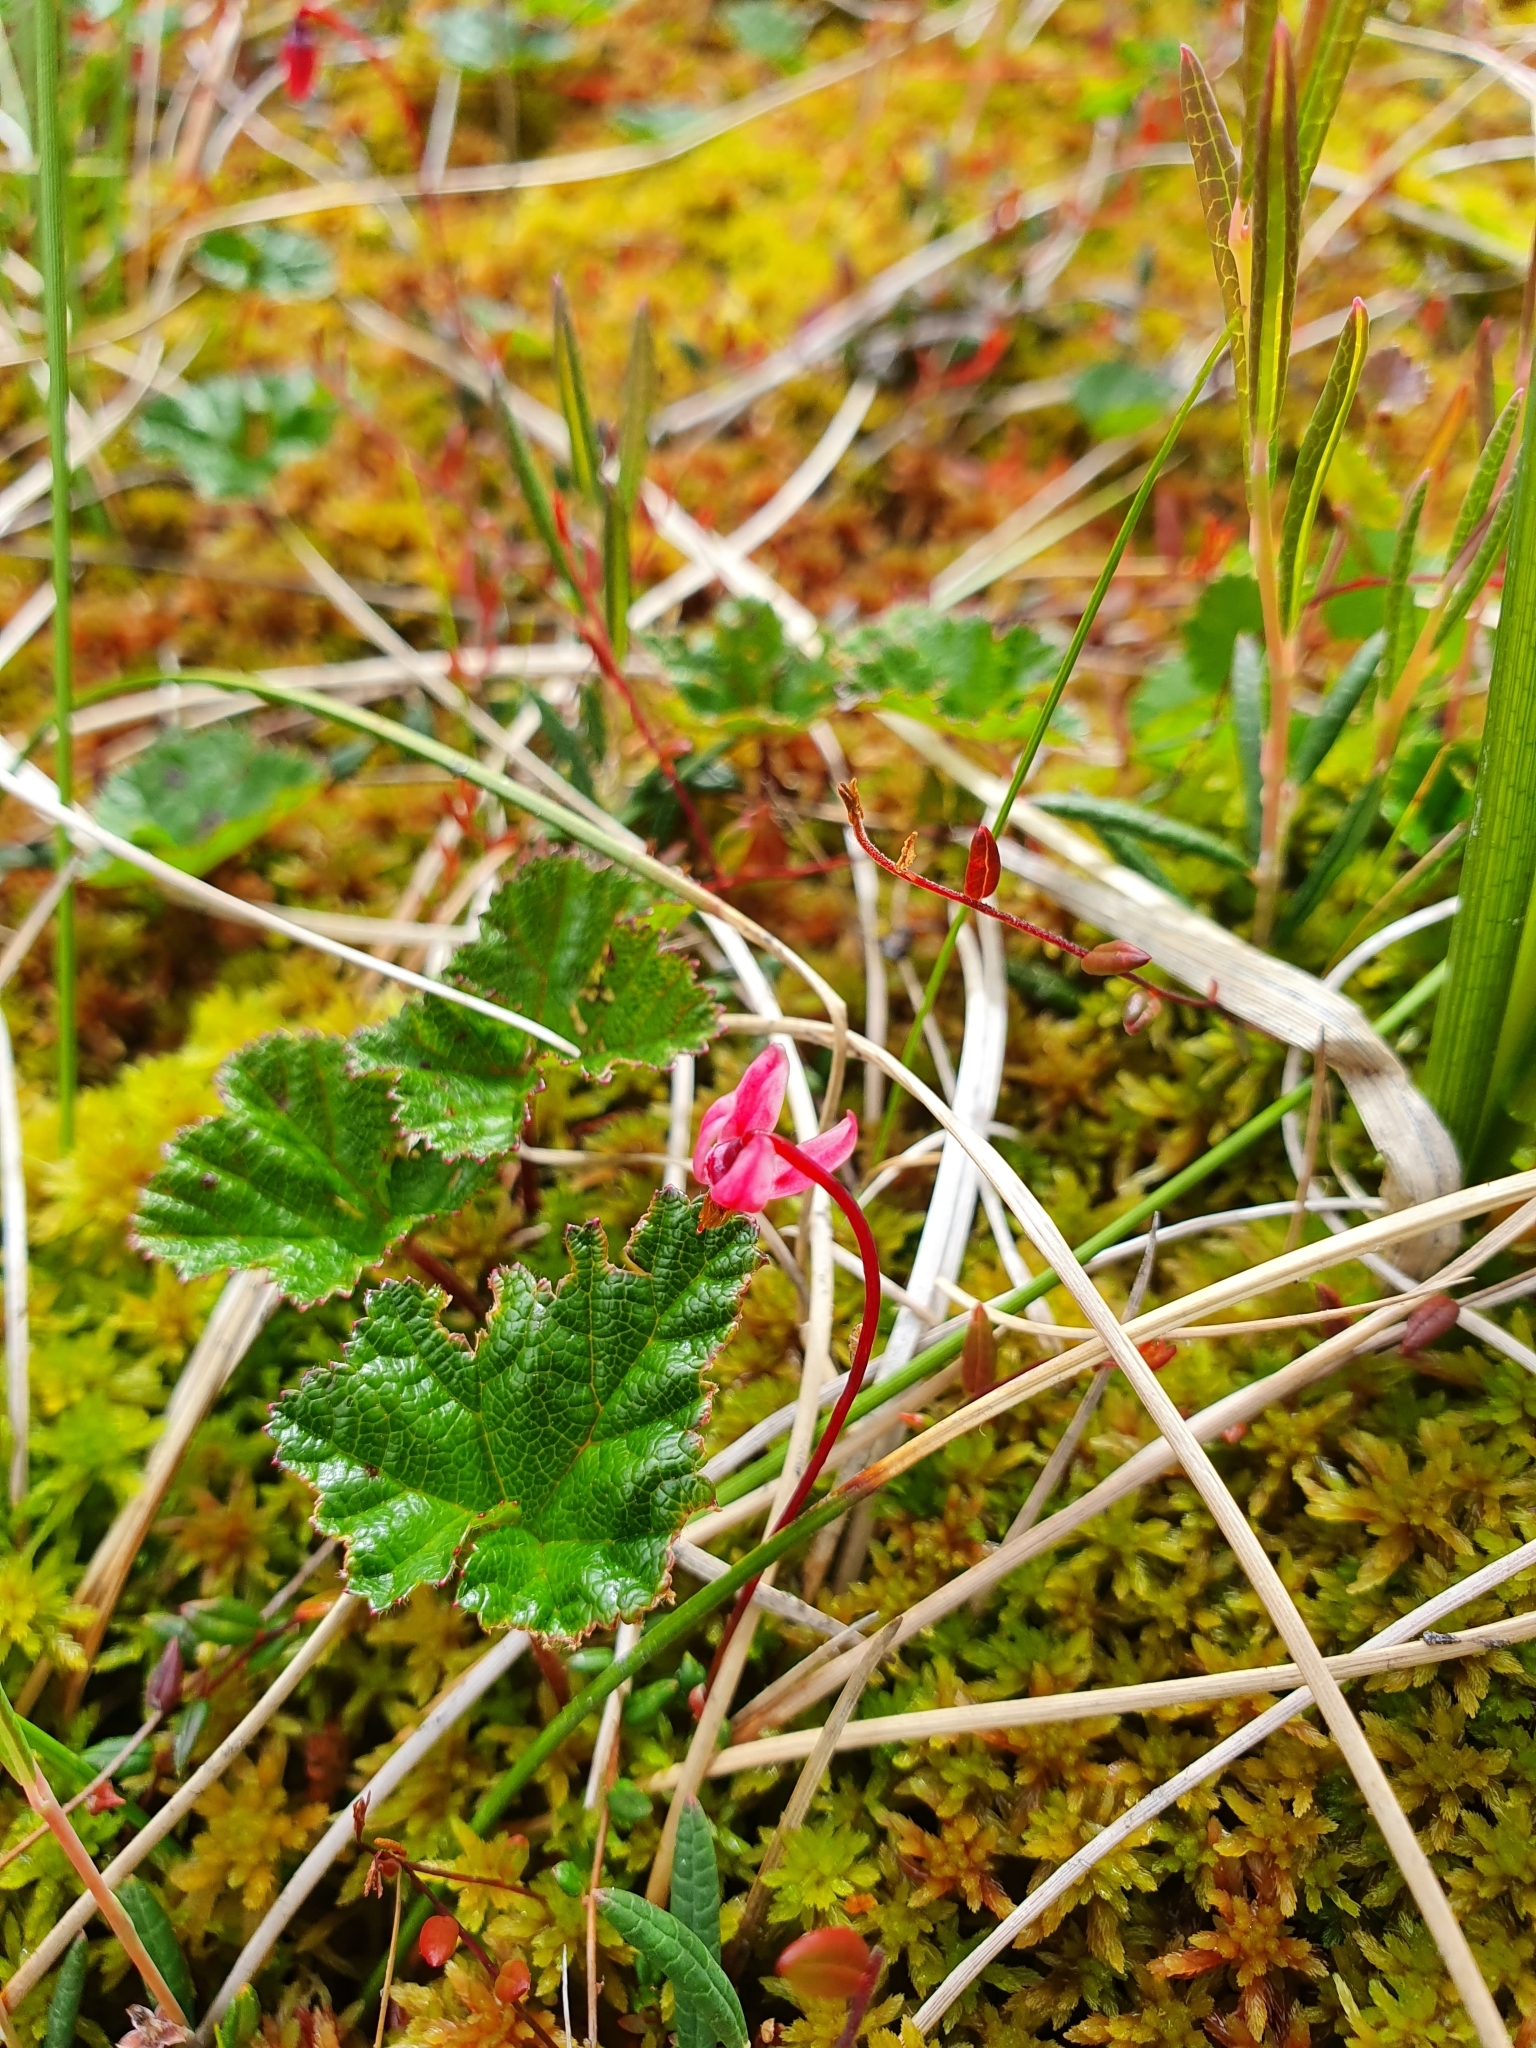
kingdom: Plantae
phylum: Tracheophyta
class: Magnoliopsida
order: Rosales
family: Rosaceae
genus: Rubus
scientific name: Rubus chamaemorus
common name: Cloudberry
